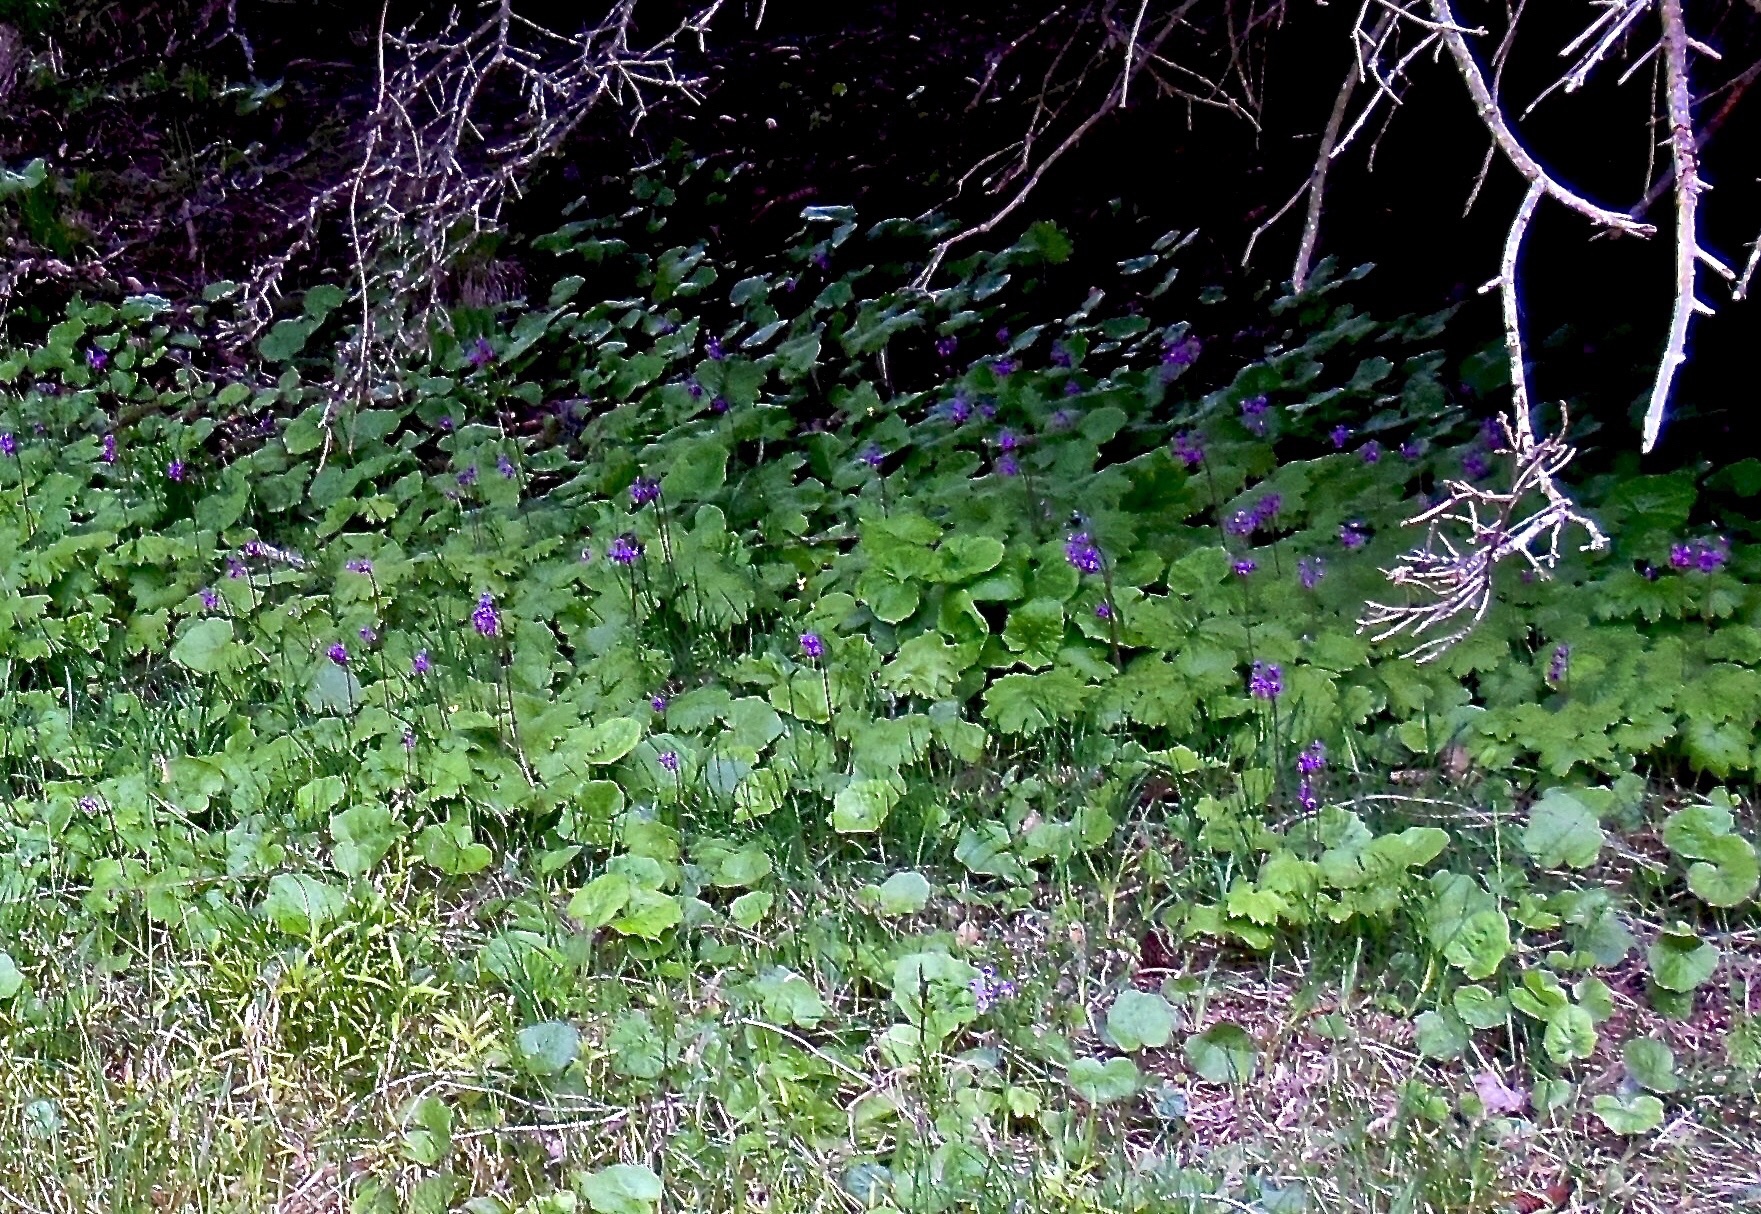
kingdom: Plantae
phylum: Tracheophyta
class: Magnoliopsida
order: Ericales
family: Primulaceae
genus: Primula
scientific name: Primula matthioli
